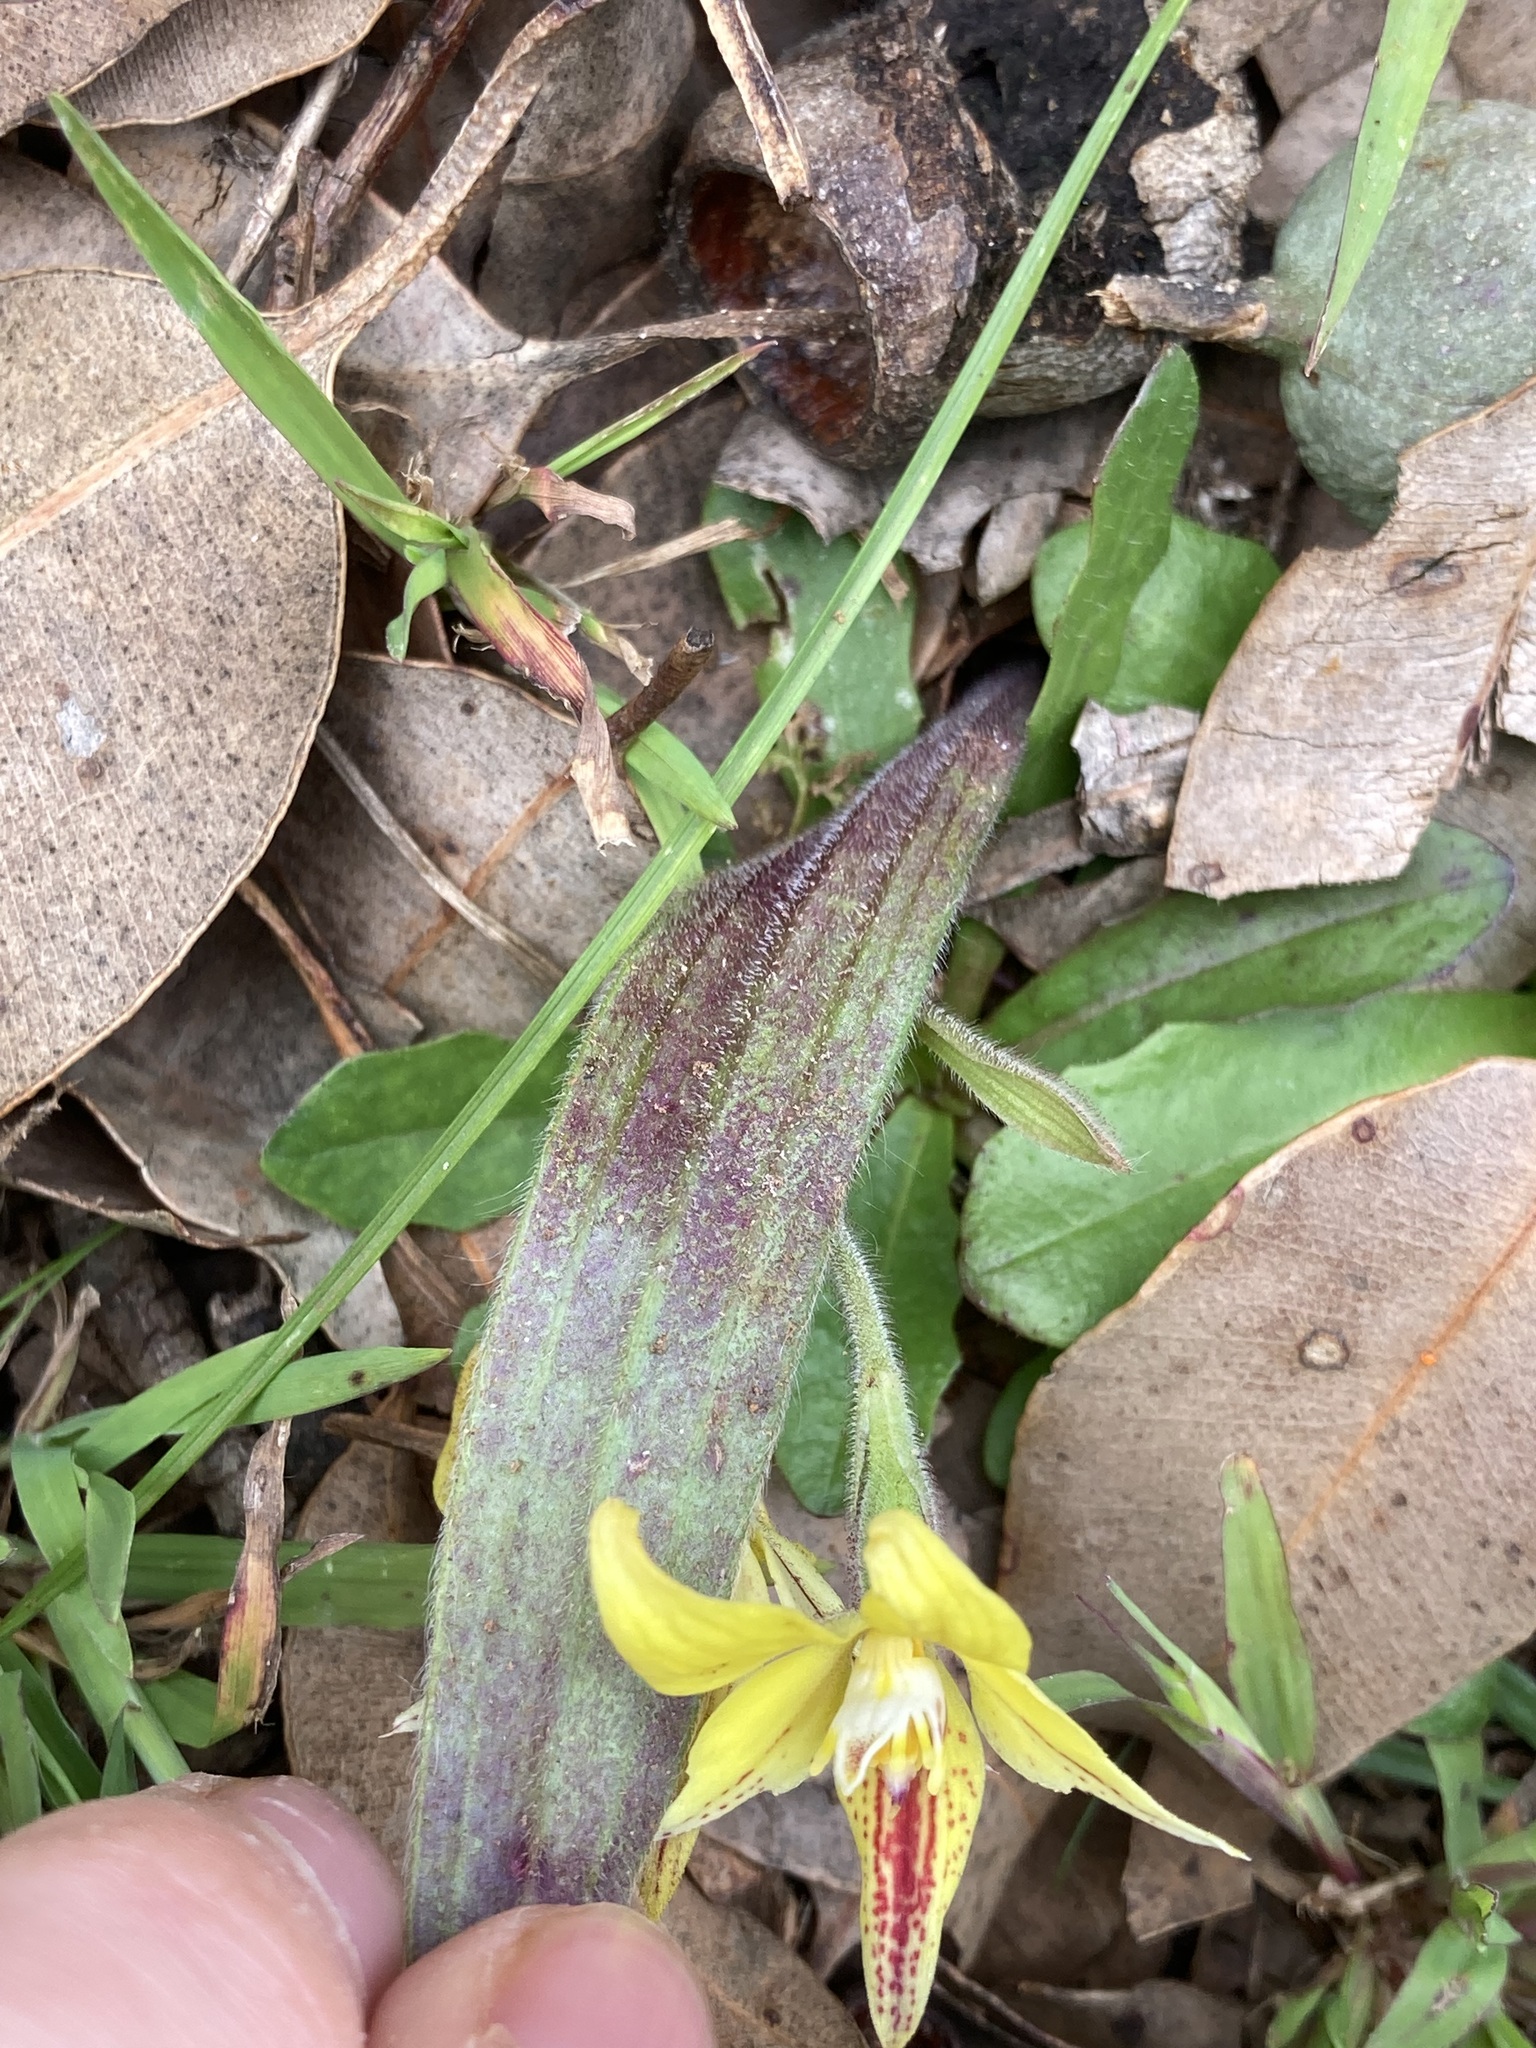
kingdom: Plantae
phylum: Tracheophyta
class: Liliopsida
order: Asparagales
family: Orchidaceae
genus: Caladenia
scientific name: Caladenia flava
